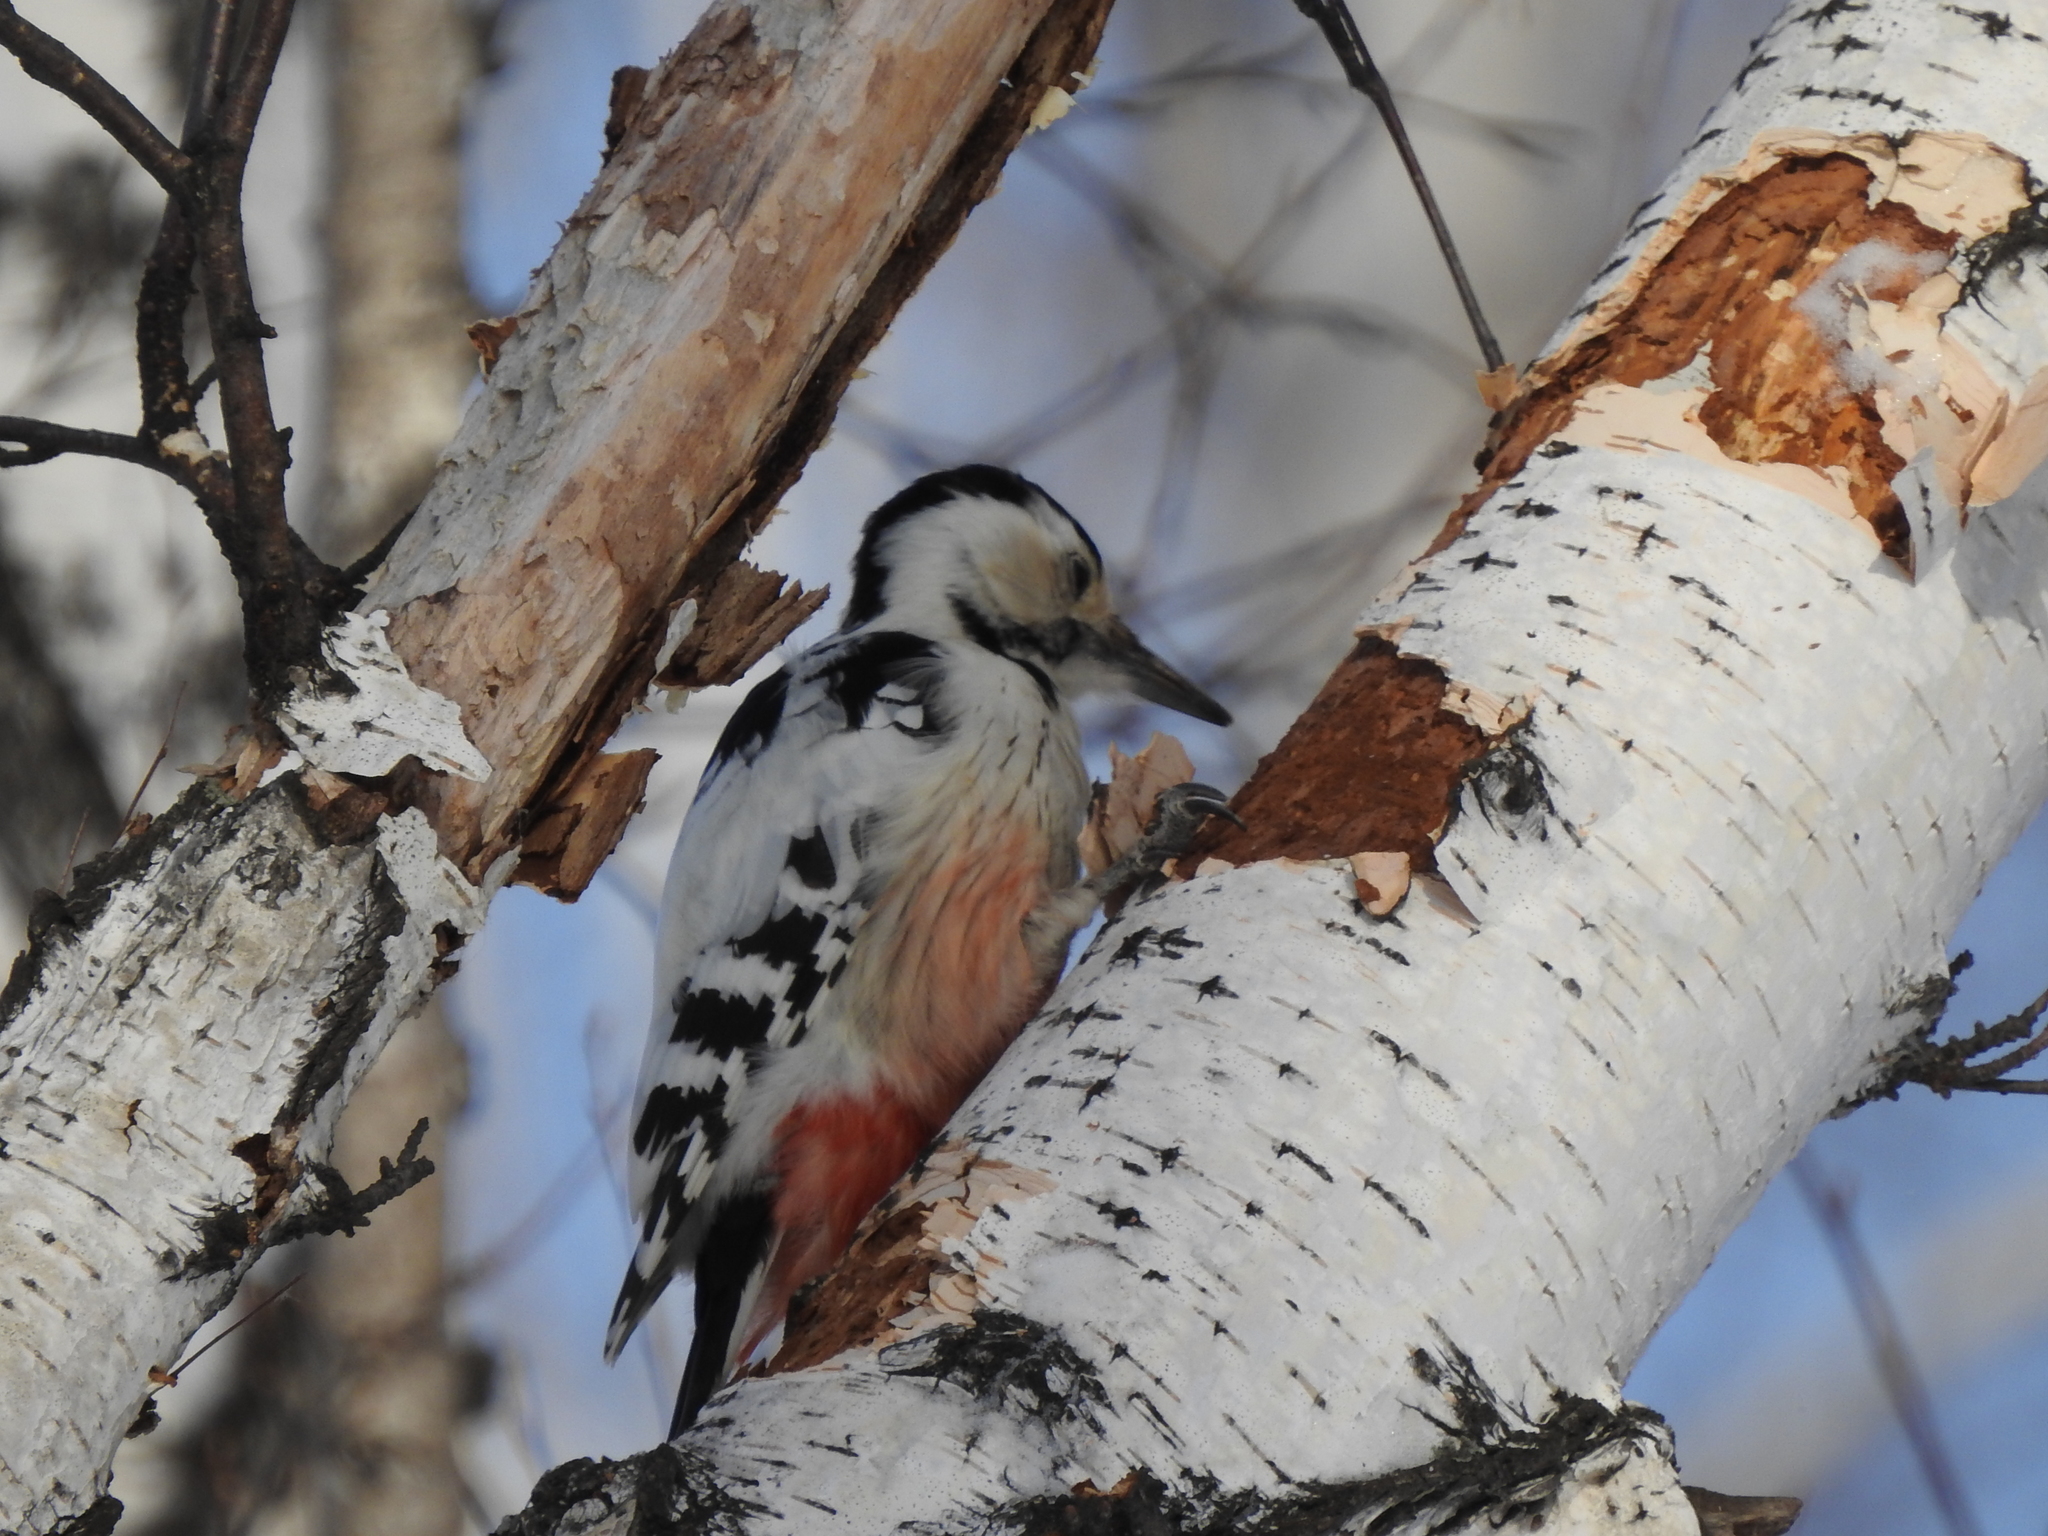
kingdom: Animalia
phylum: Chordata
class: Aves
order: Piciformes
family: Picidae
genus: Dendrocopos
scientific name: Dendrocopos leucotos
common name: White-backed woodpecker
